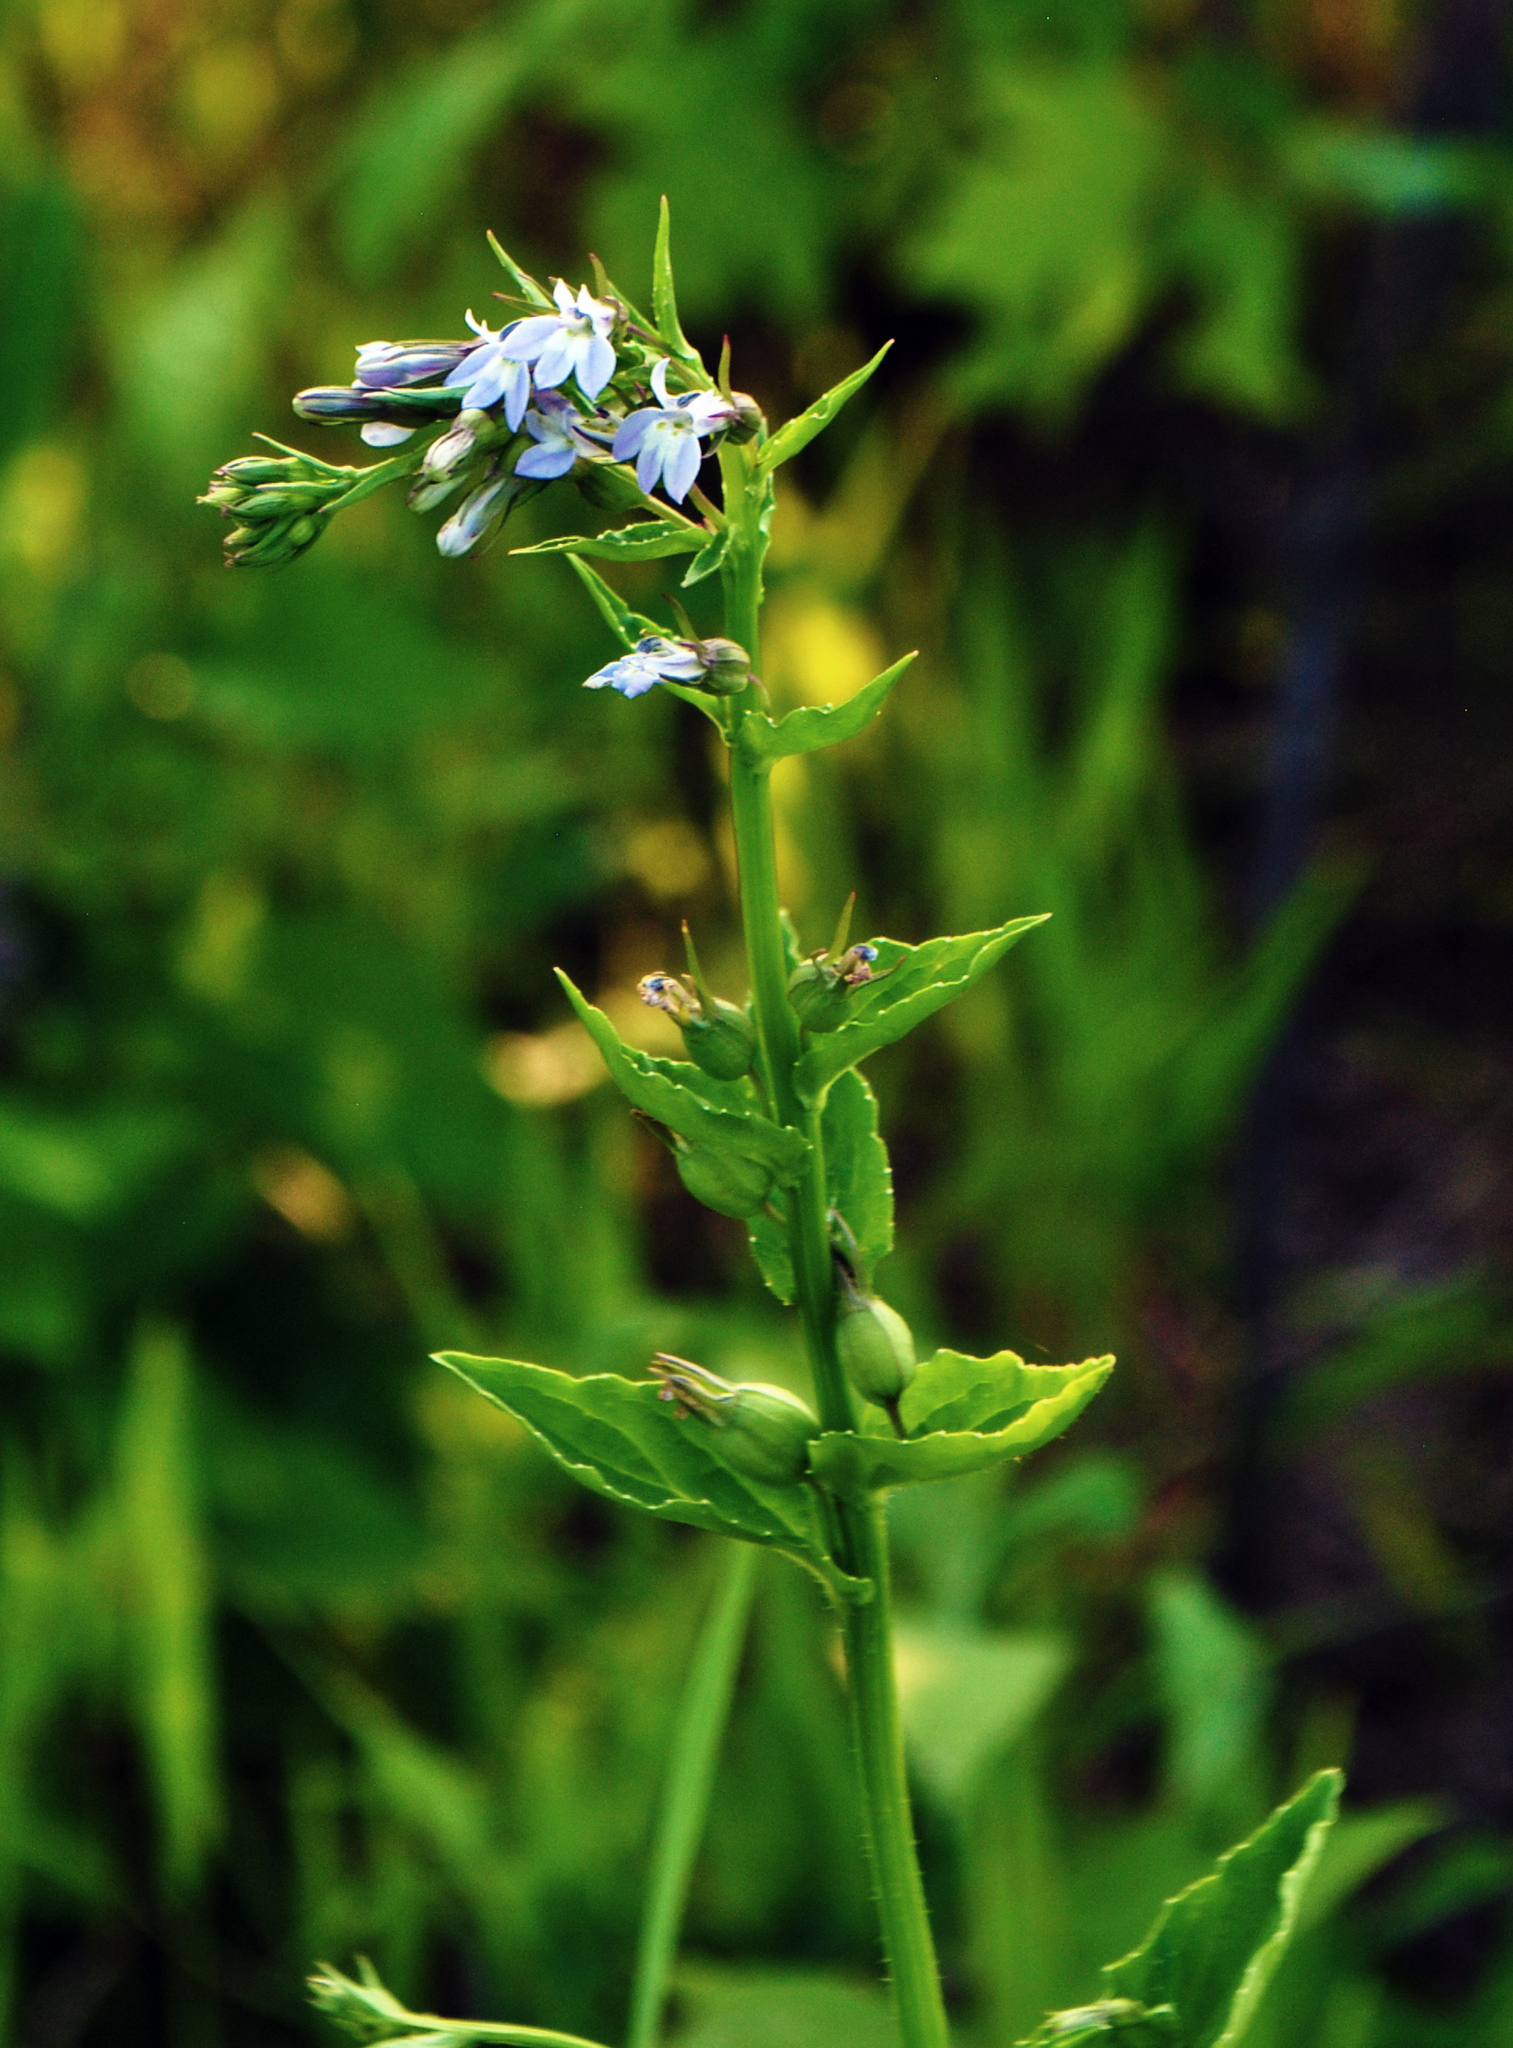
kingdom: Plantae
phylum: Tracheophyta
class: Magnoliopsida
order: Asterales
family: Campanulaceae
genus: Lobelia
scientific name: Lobelia inflata
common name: Indian tobacco
